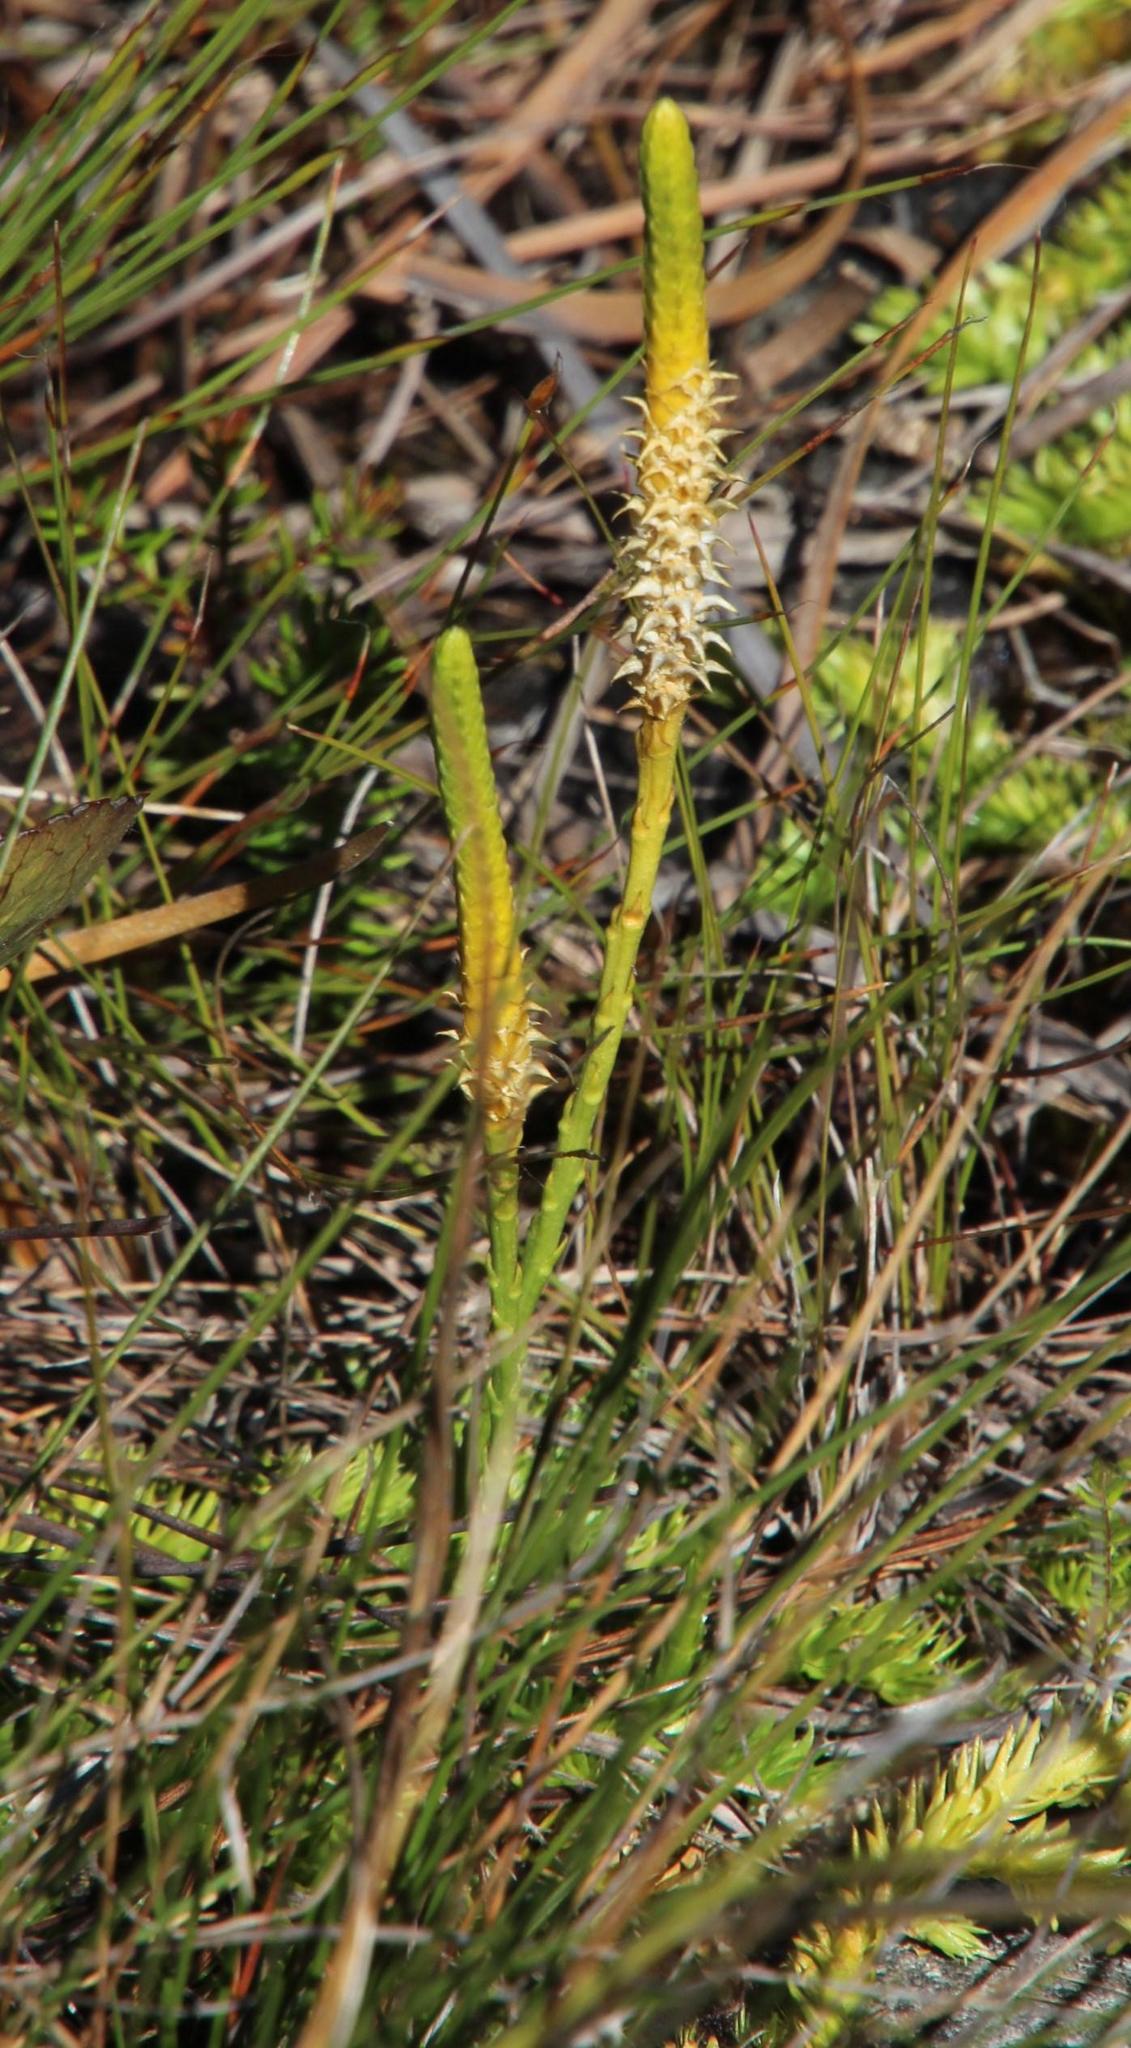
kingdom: Plantae
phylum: Tracheophyta
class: Lycopodiopsida
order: Lycopodiales
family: Lycopodiaceae
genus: Pseudolycopodiella
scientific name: Pseudolycopodiella caroliniana
